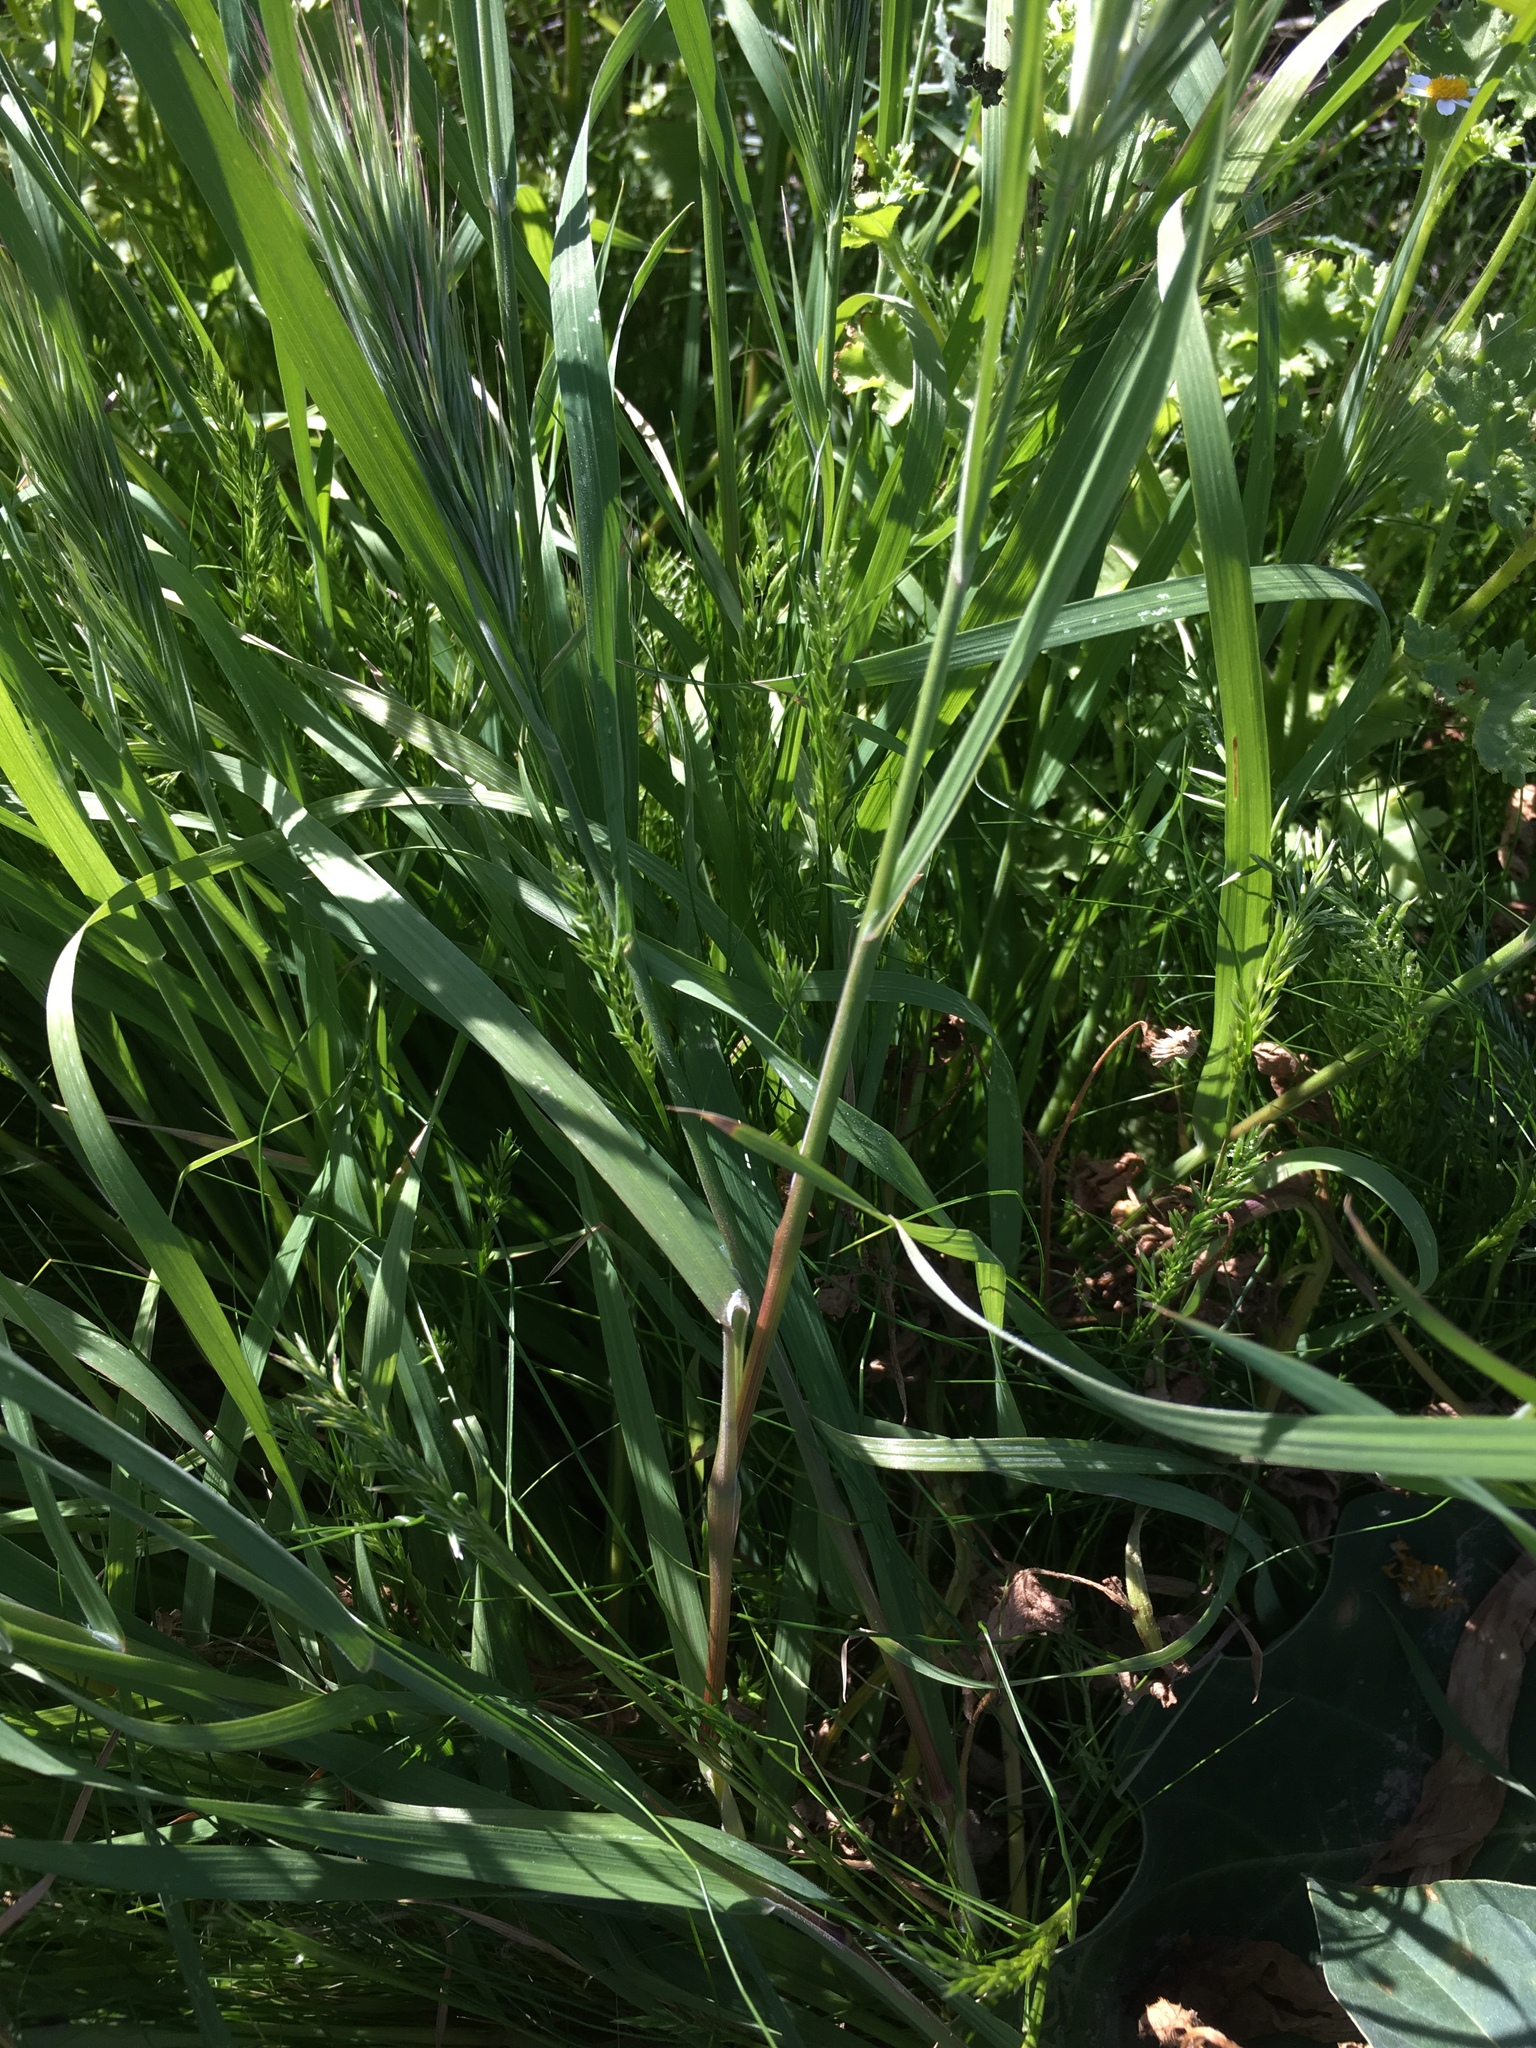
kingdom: Plantae
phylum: Tracheophyta
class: Liliopsida
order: Poales
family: Poaceae
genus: Bromus
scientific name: Bromus rubens
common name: Red brome
